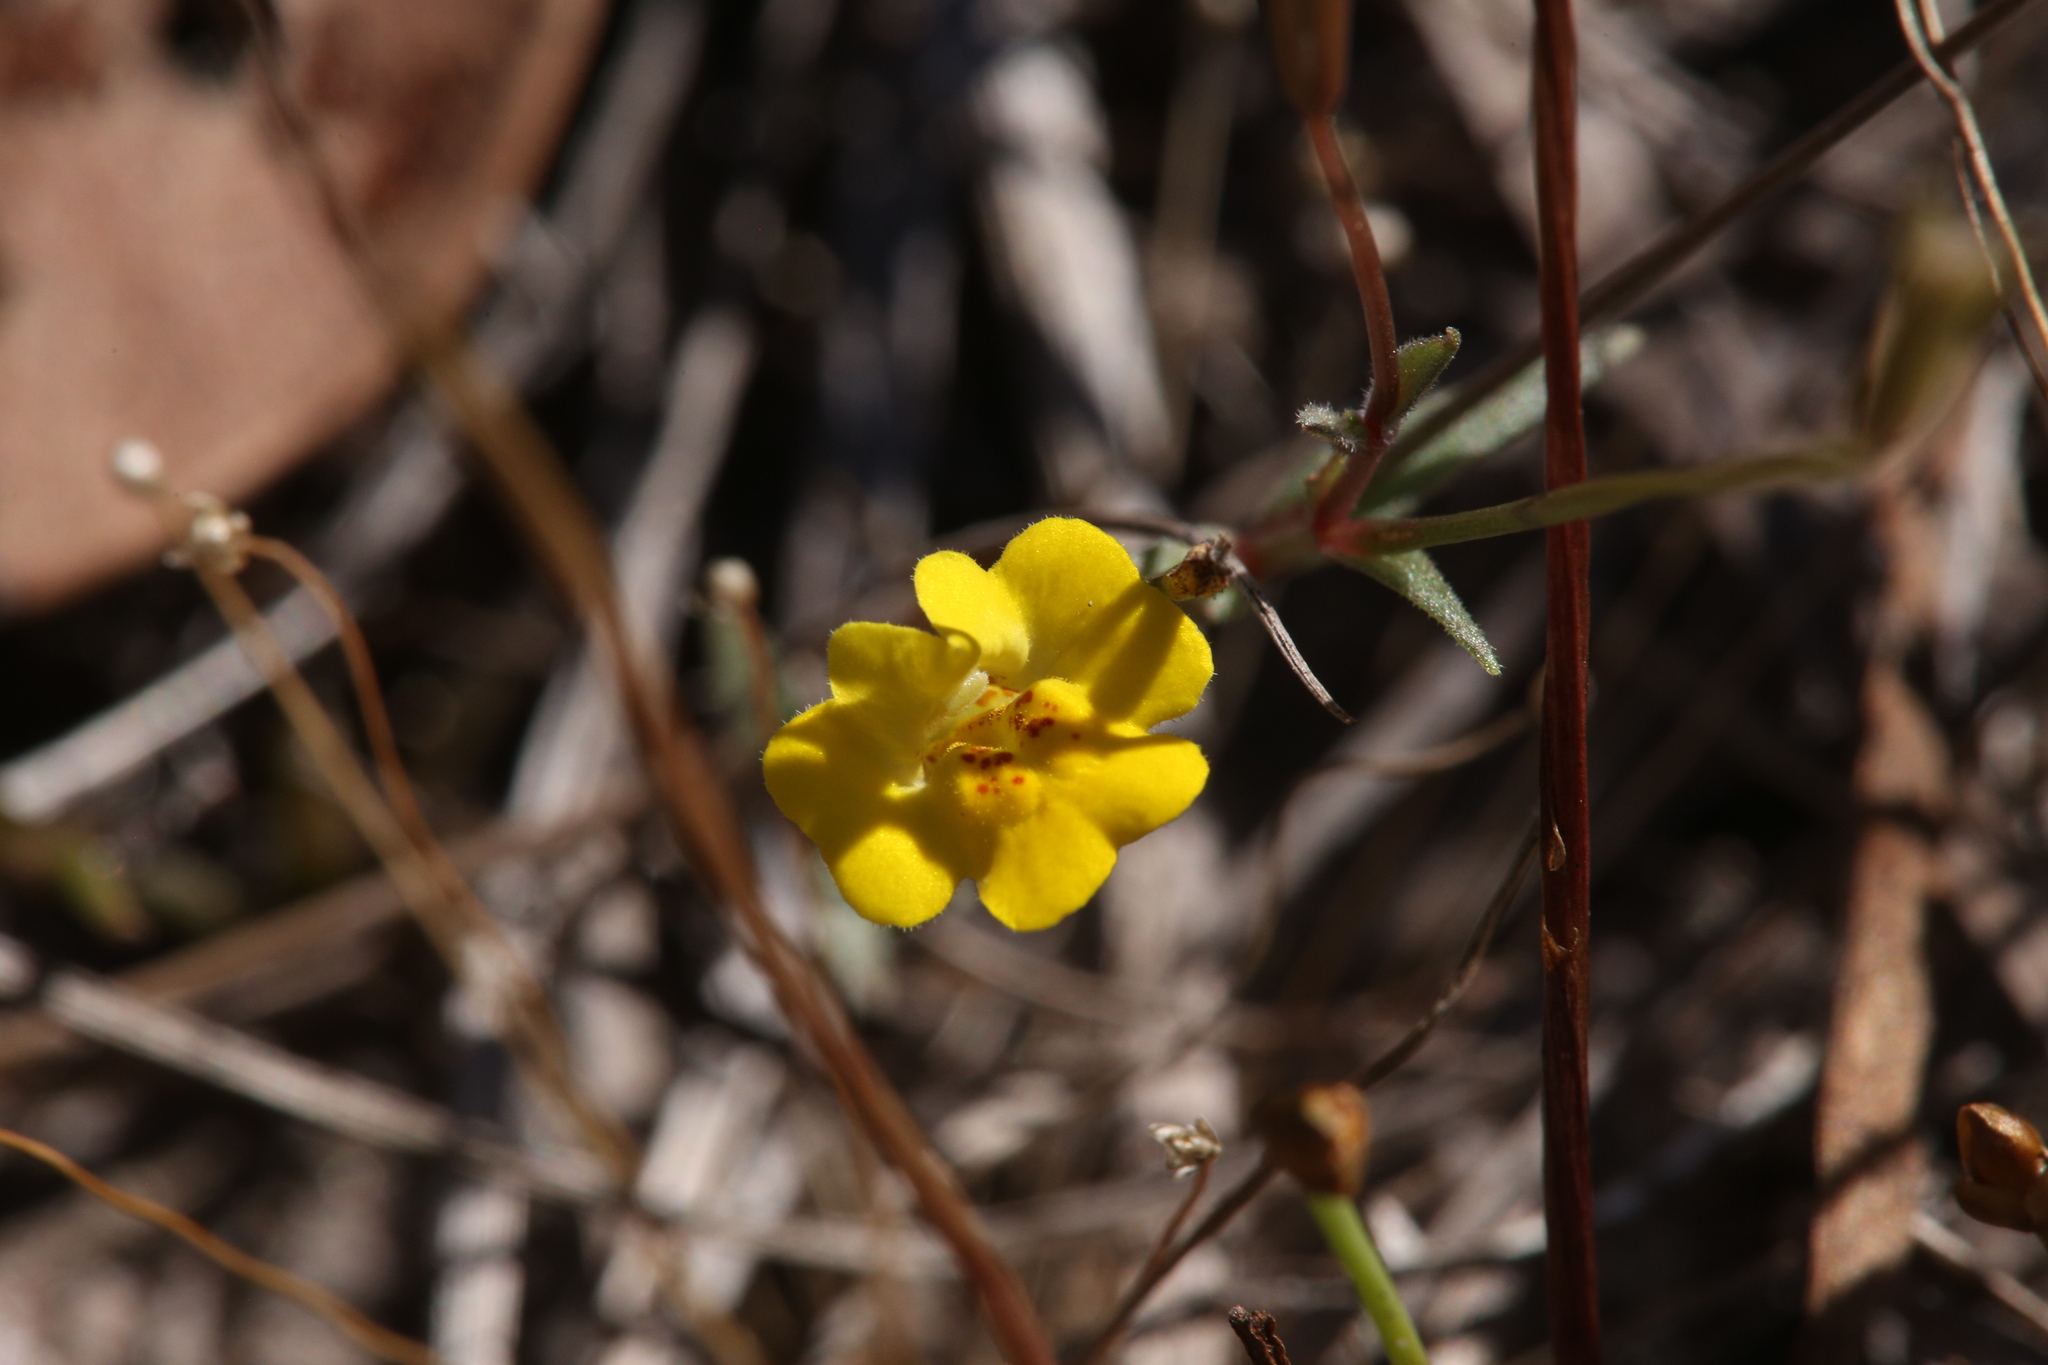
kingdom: Plantae
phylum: Tracheophyta
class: Magnoliopsida
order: Lamiales
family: Phrymaceae
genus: Uvedalia
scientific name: Uvedalia linearis
